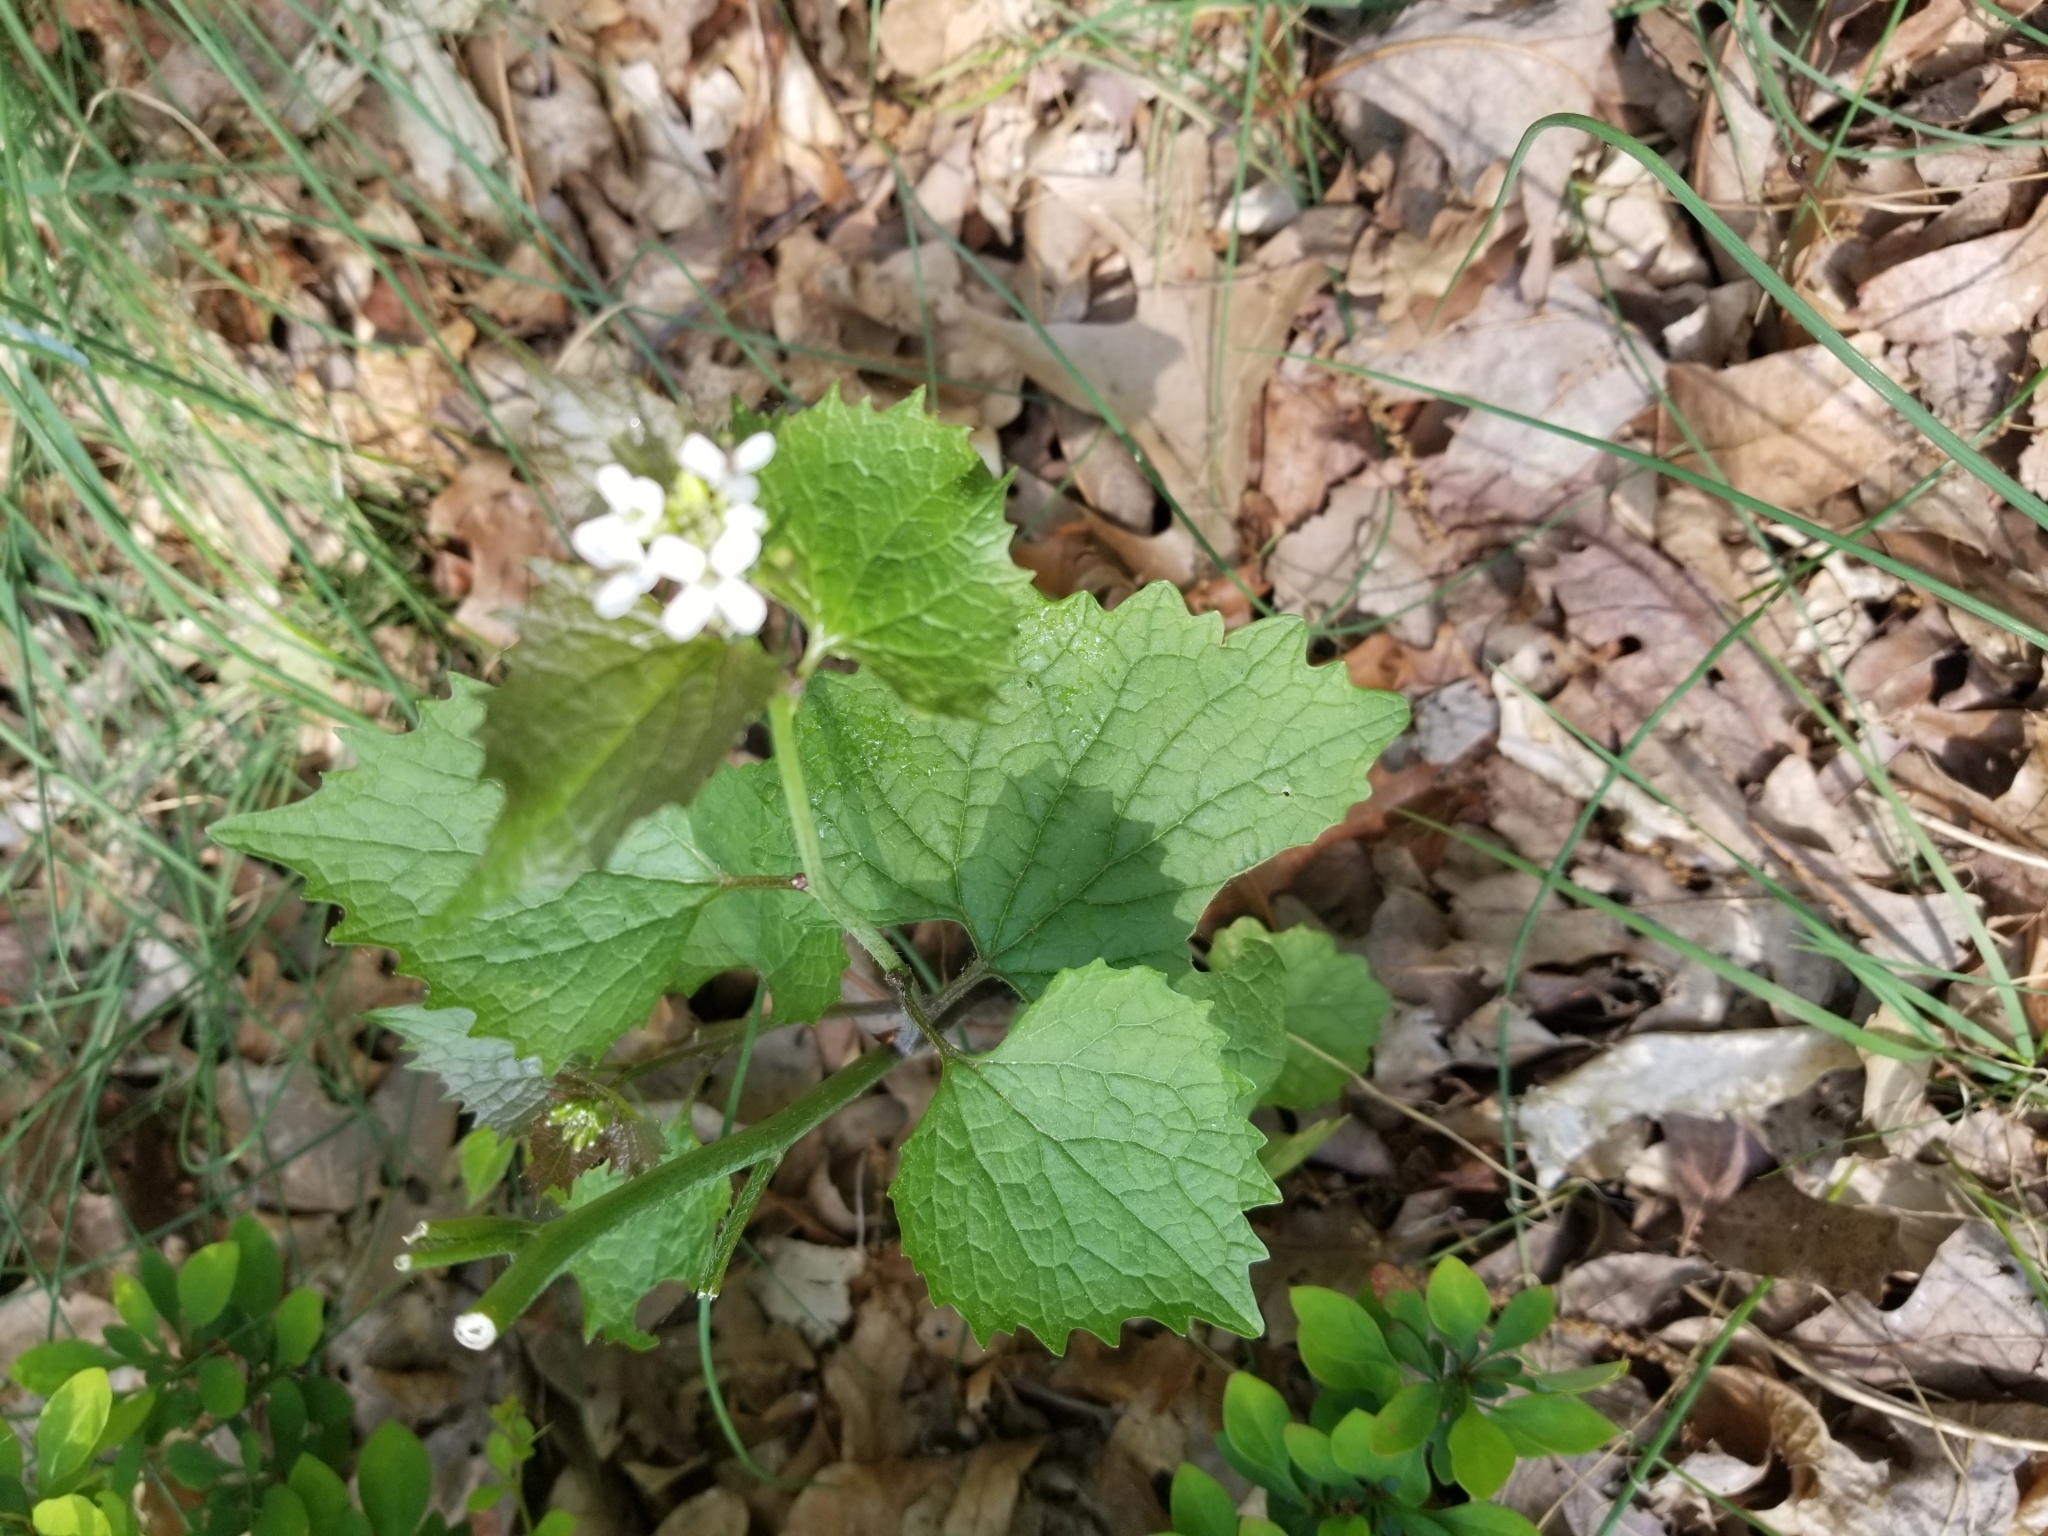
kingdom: Plantae
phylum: Tracheophyta
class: Magnoliopsida
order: Brassicales
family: Brassicaceae
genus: Alliaria
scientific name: Alliaria petiolata
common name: Garlic mustard
